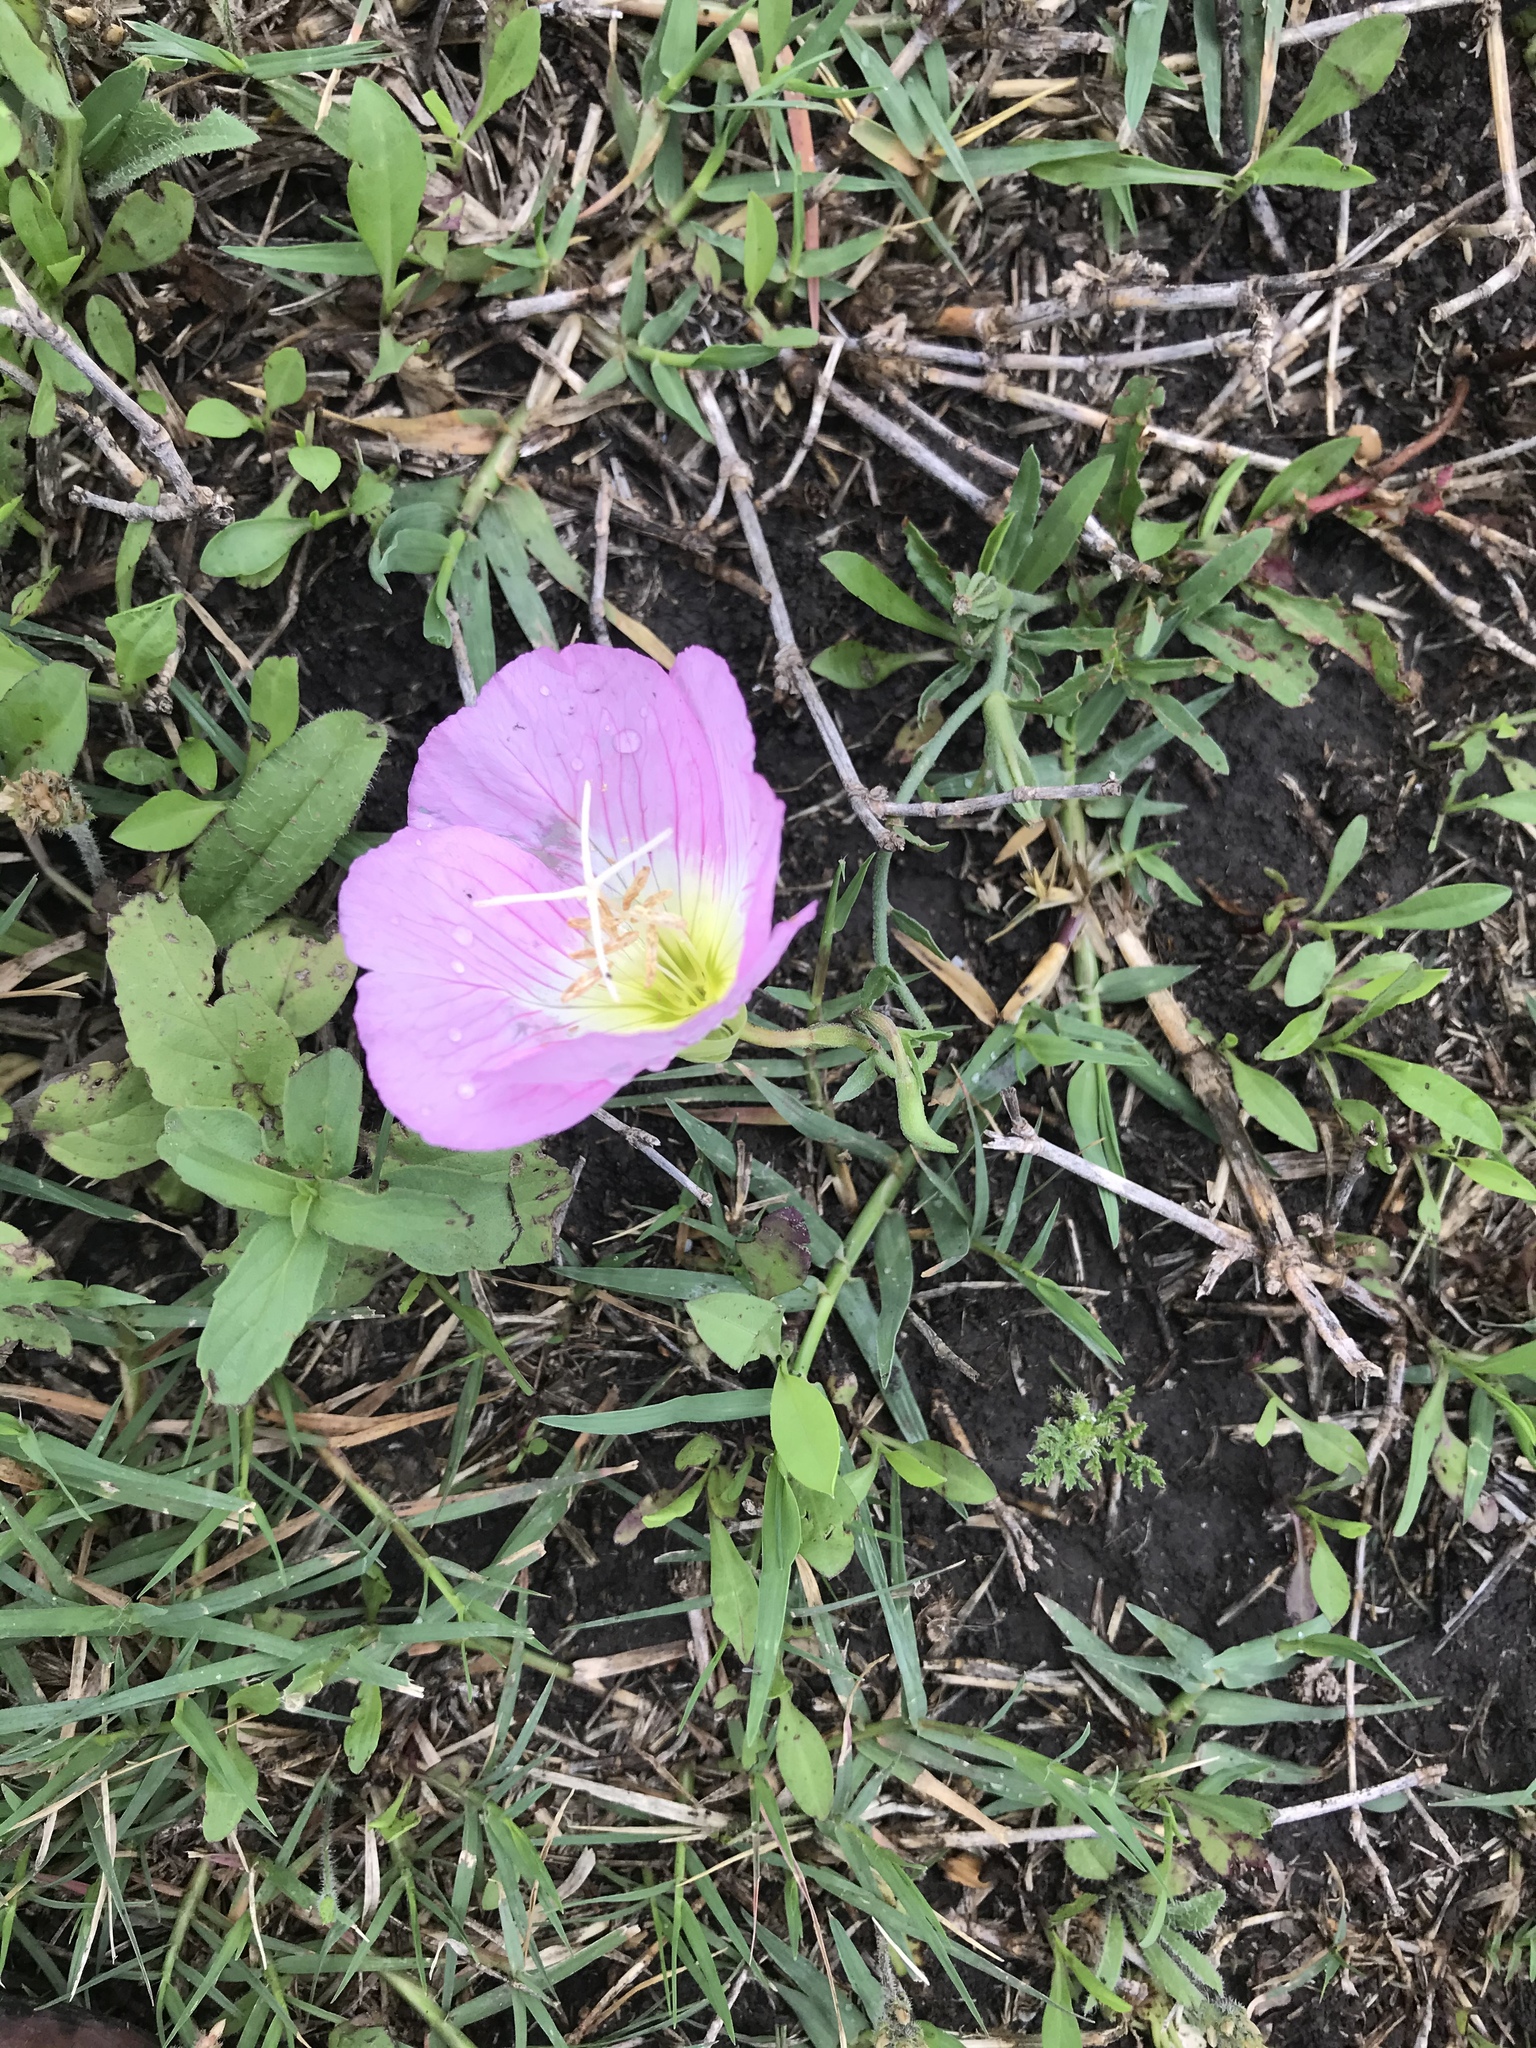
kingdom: Plantae
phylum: Tracheophyta
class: Magnoliopsida
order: Myrtales
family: Onagraceae
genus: Oenothera
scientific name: Oenothera speciosa
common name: White evening-primrose
